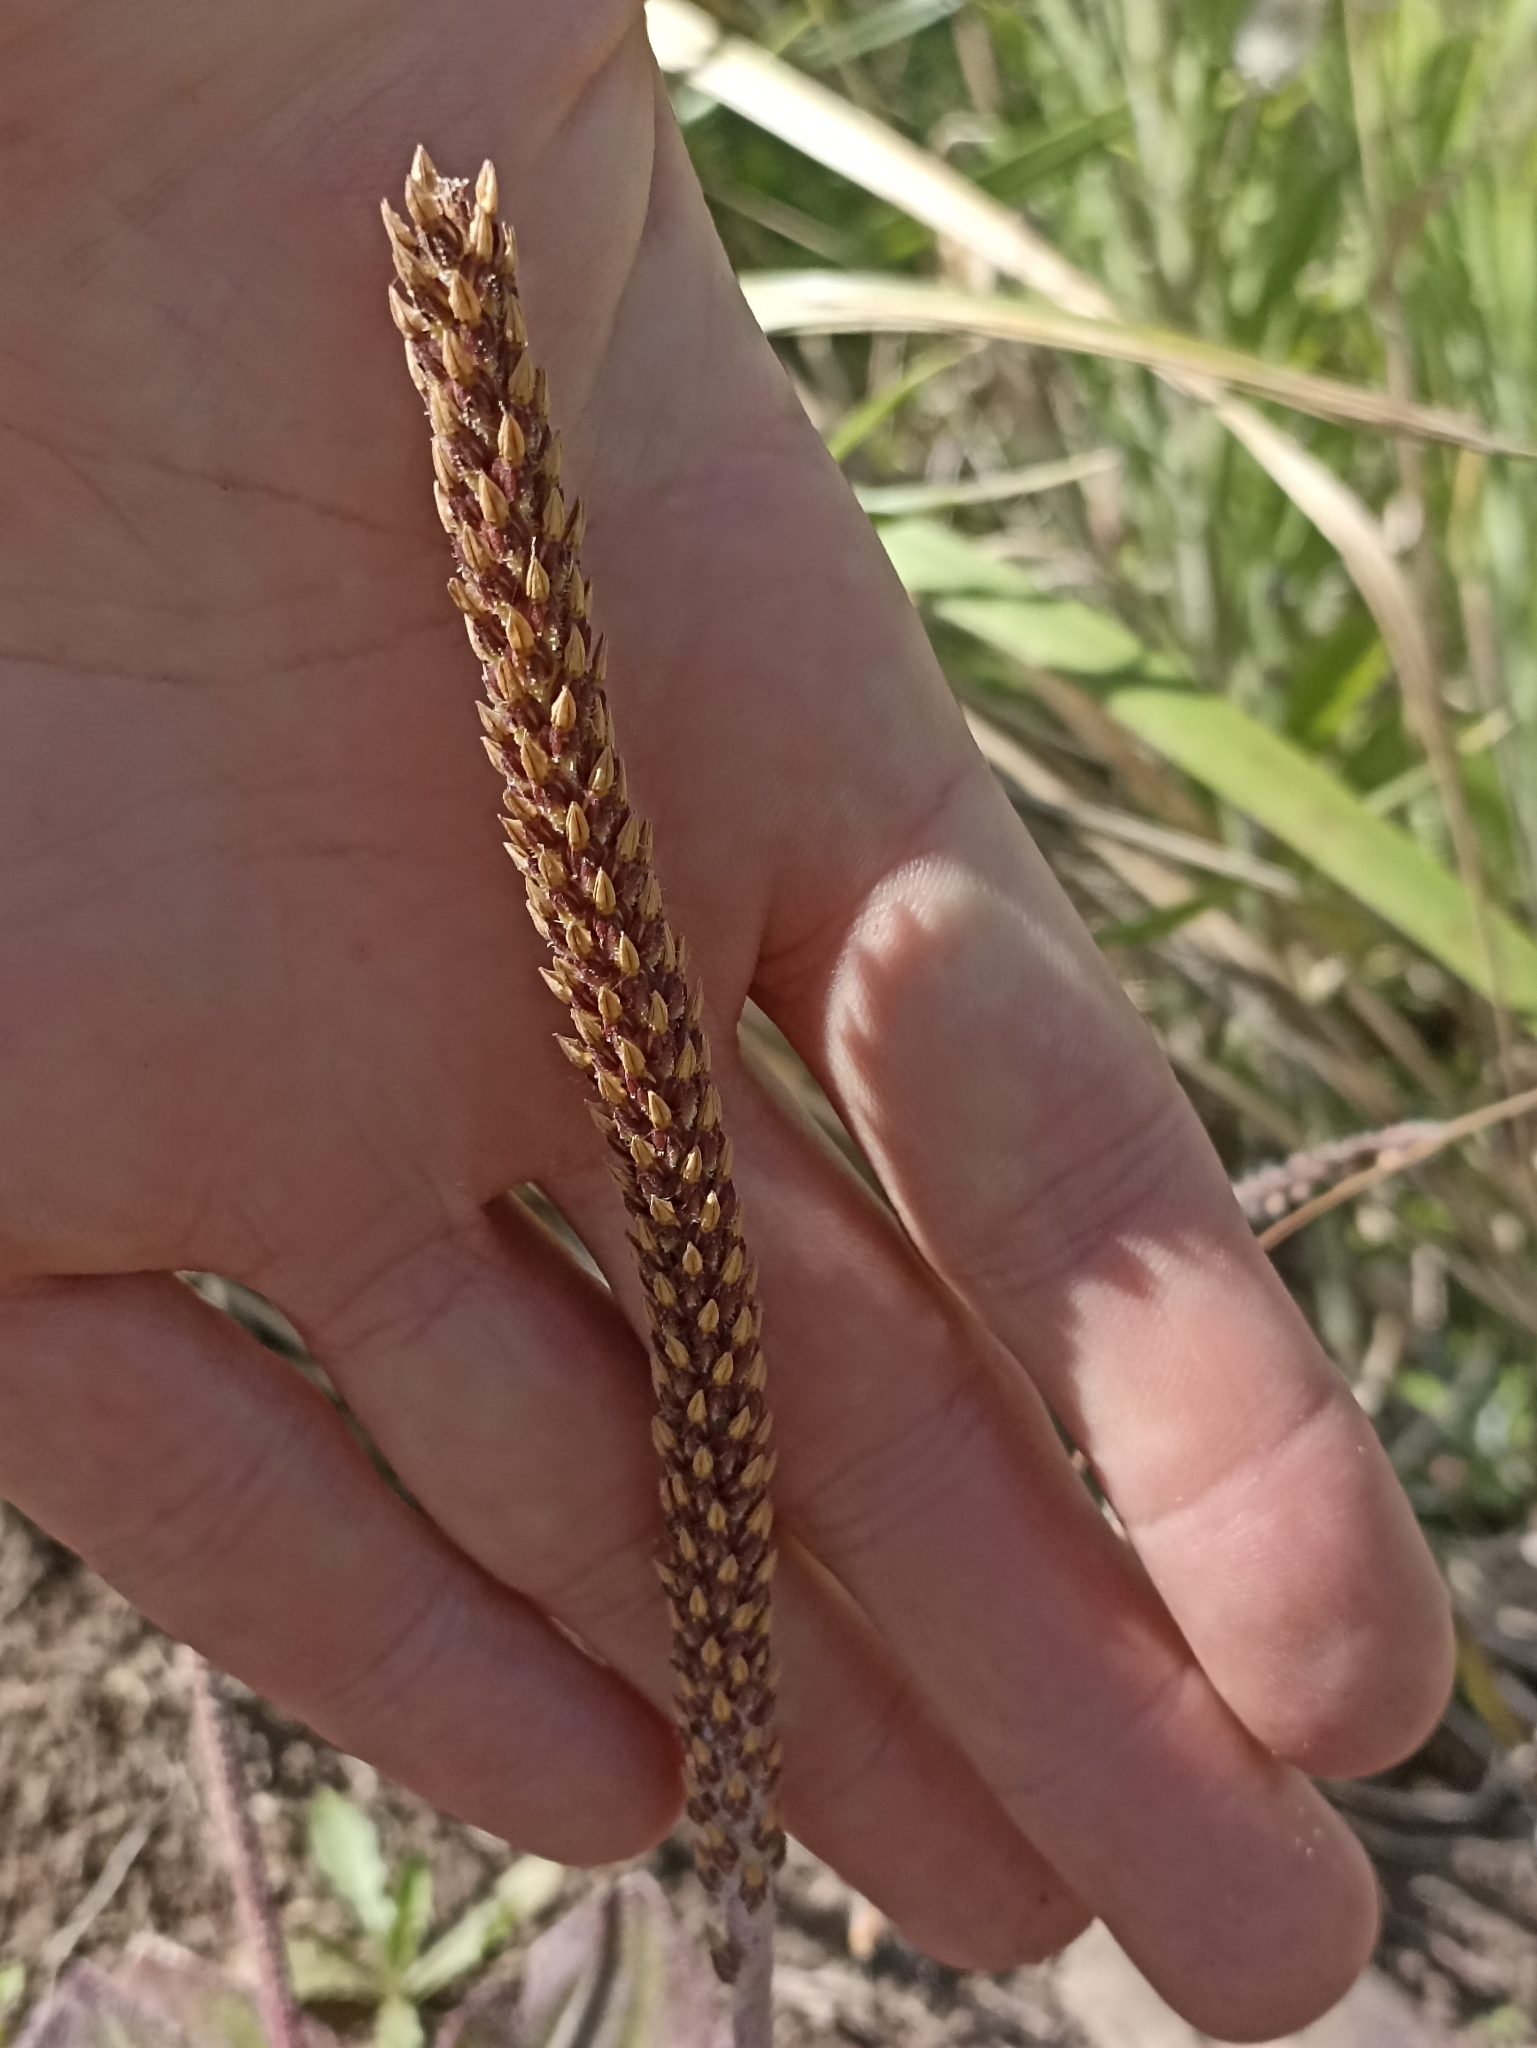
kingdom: Plantae
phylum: Tracheophyta
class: Magnoliopsida
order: Lamiales
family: Plantaginaceae
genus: Plantago
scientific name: Plantago australis
